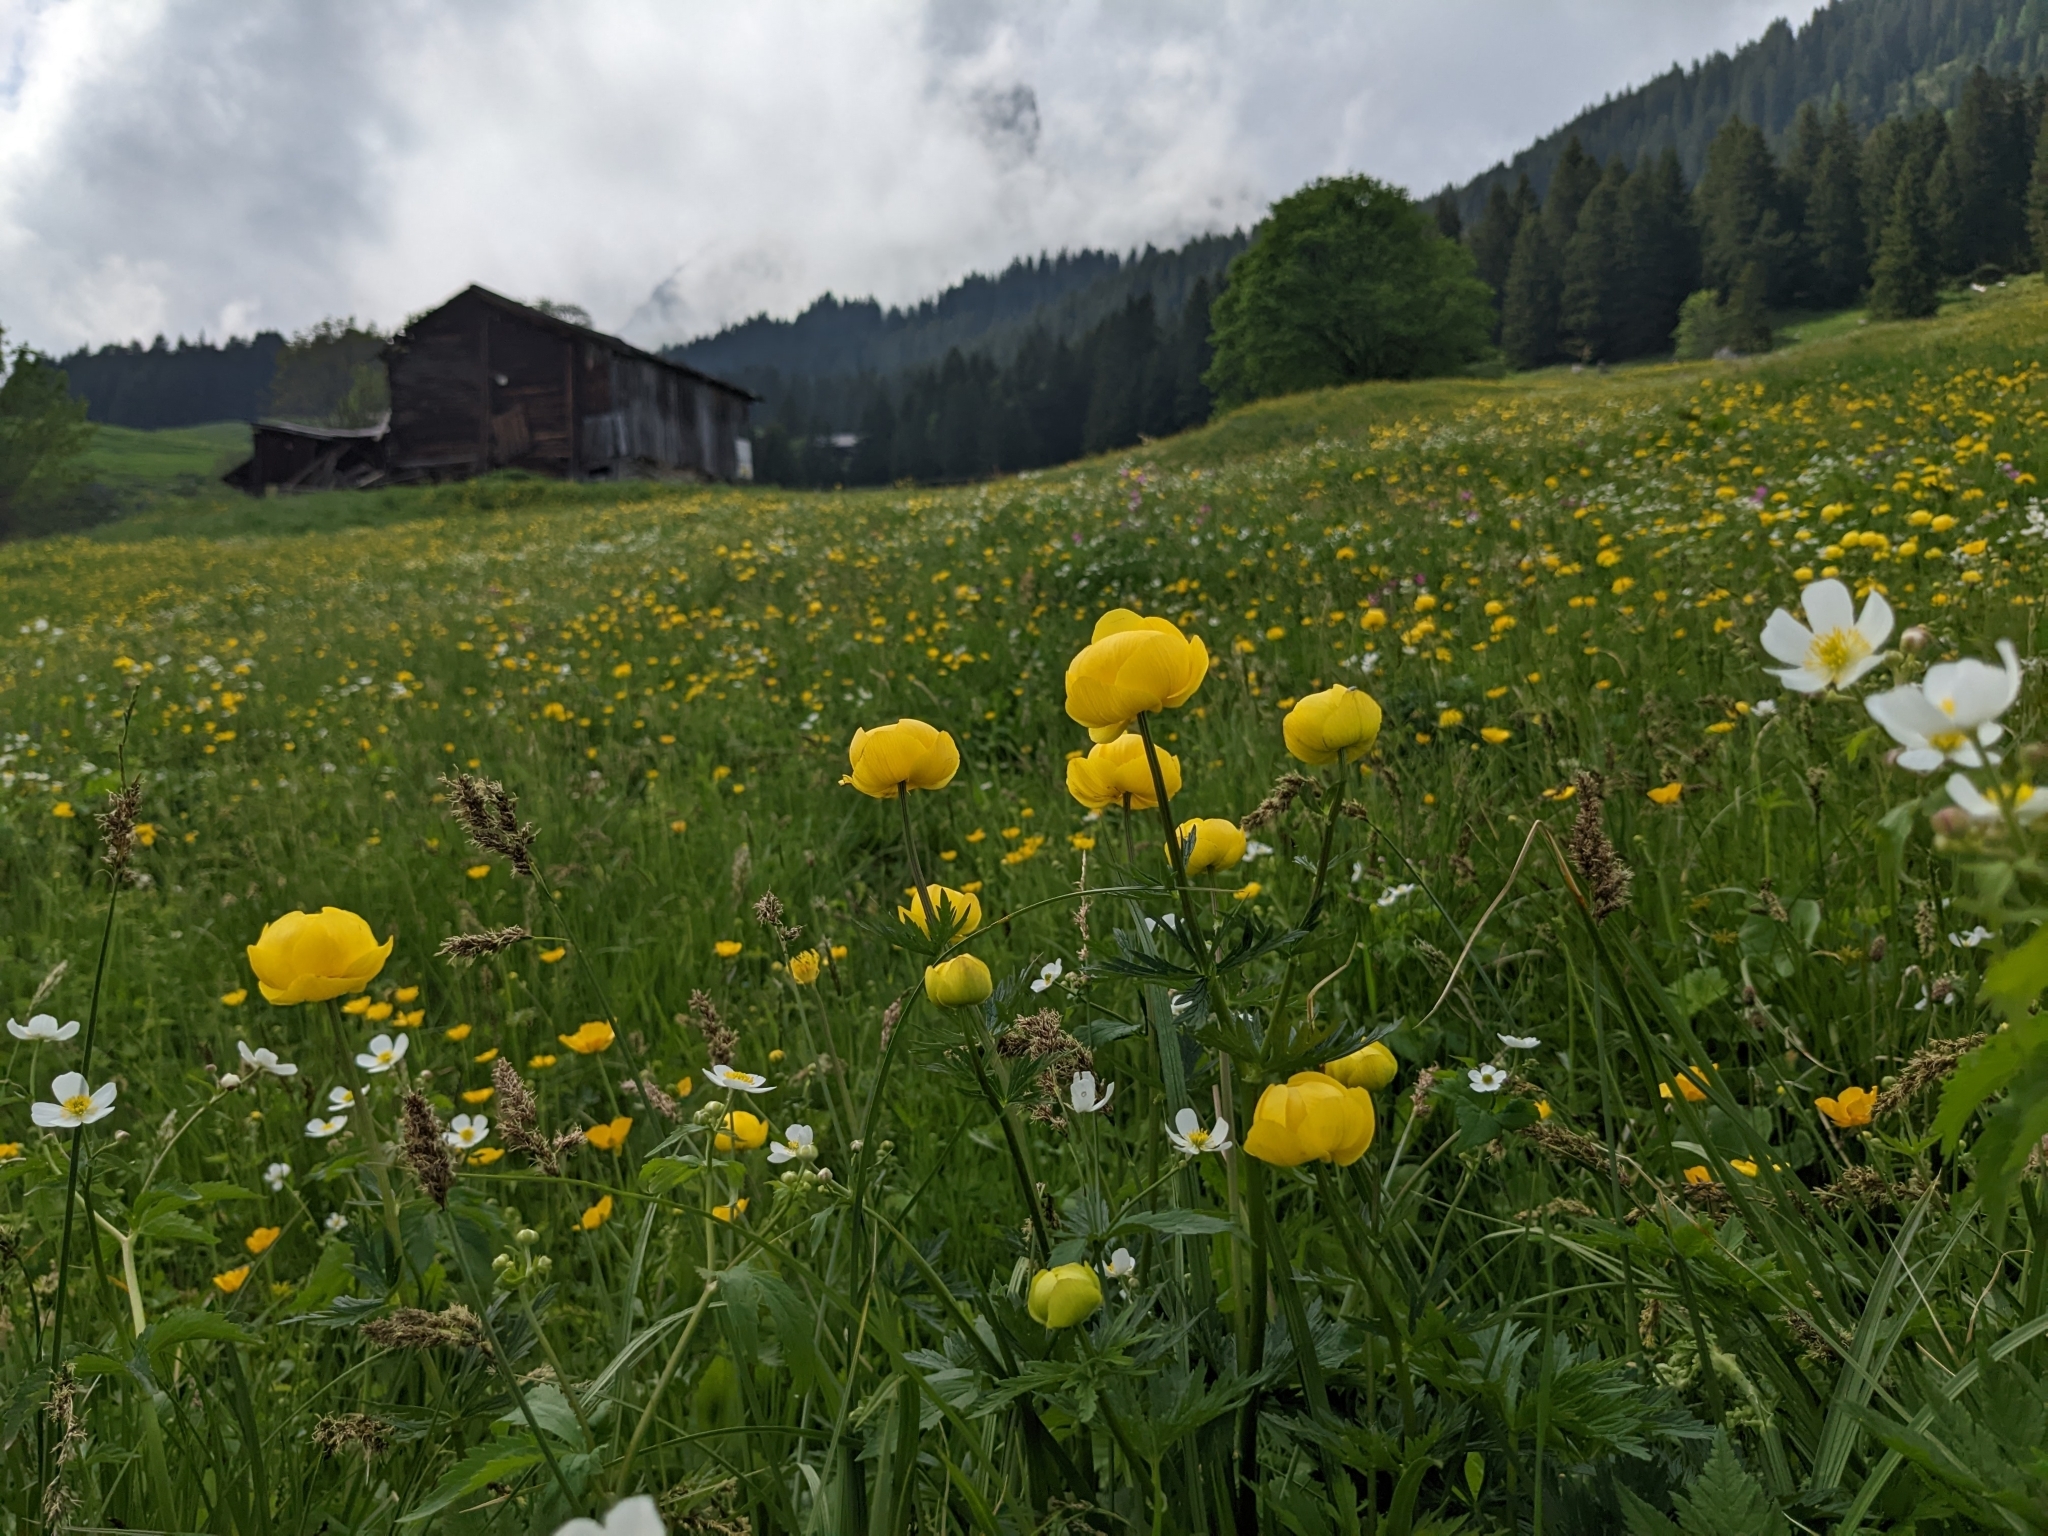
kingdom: Plantae
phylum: Tracheophyta
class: Magnoliopsida
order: Ranunculales
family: Ranunculaceae
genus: Trollius
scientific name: Trollius europaeus
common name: European globeflower
